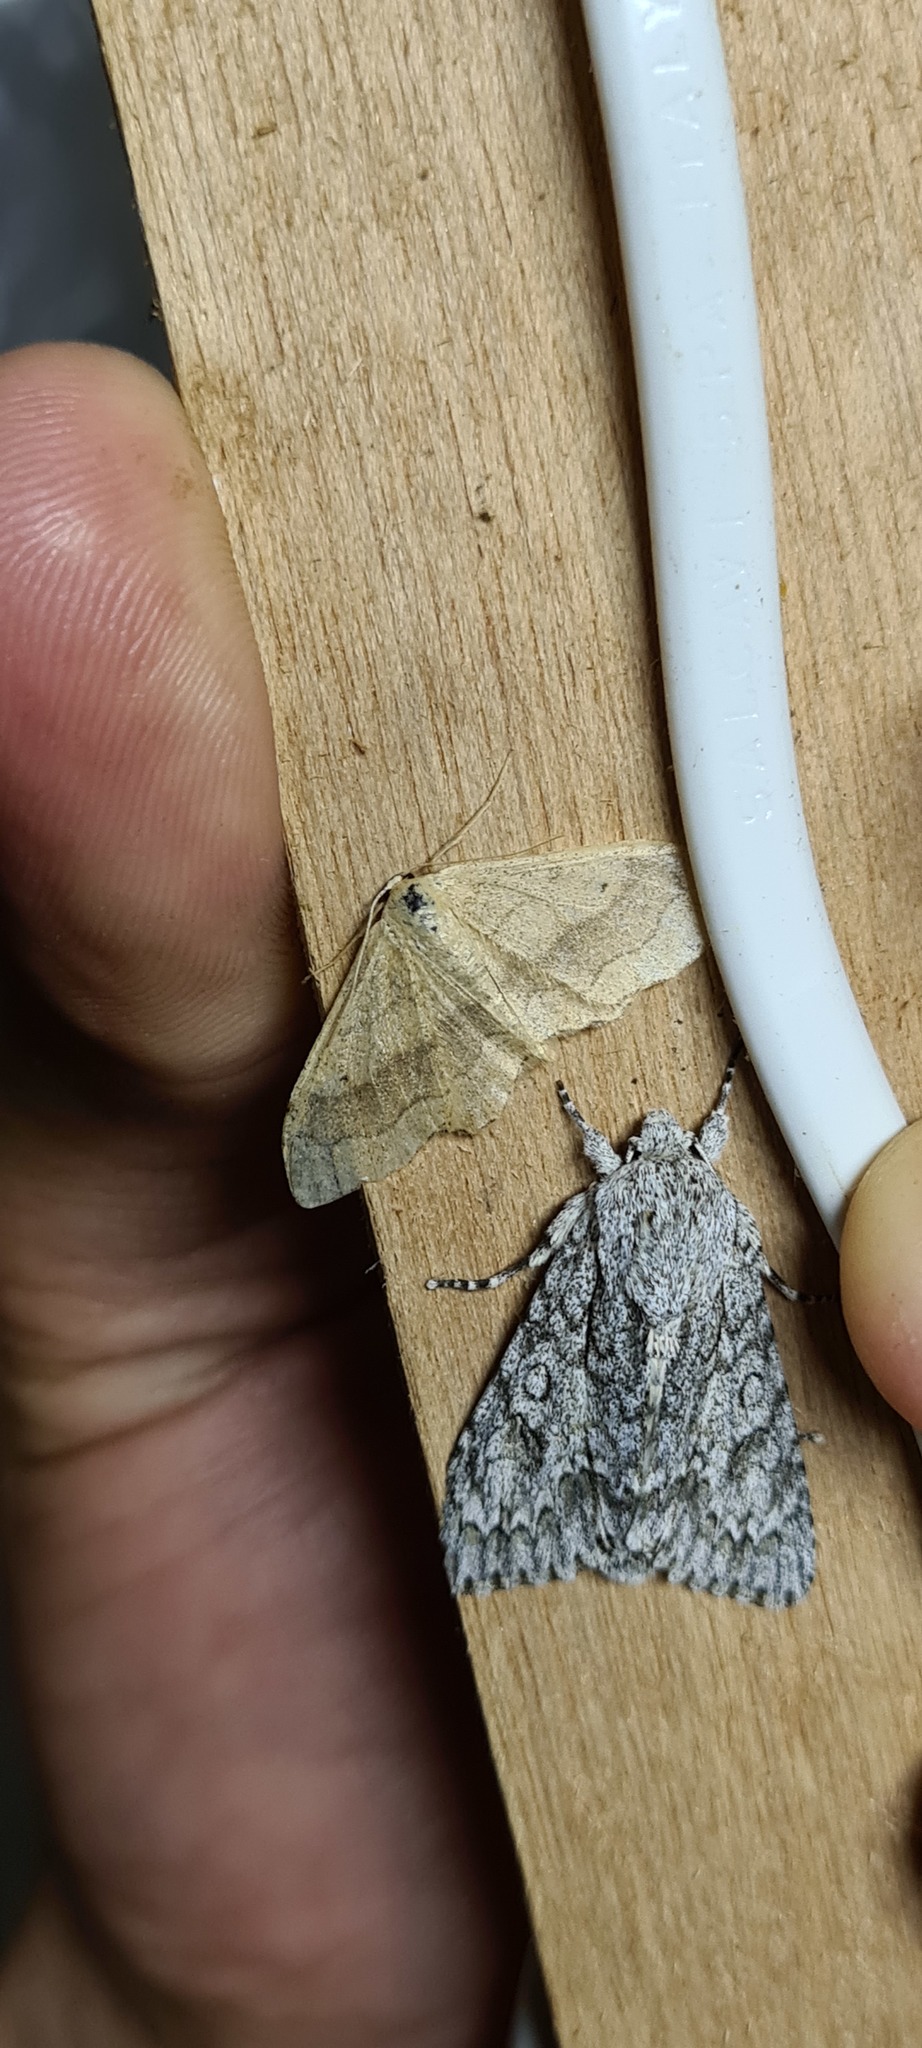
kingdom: Animalia
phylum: Arthropoda
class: Insecta
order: Lepidoptera
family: Geometridae
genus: Idaea
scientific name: Idaea aversata
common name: Riband wave
